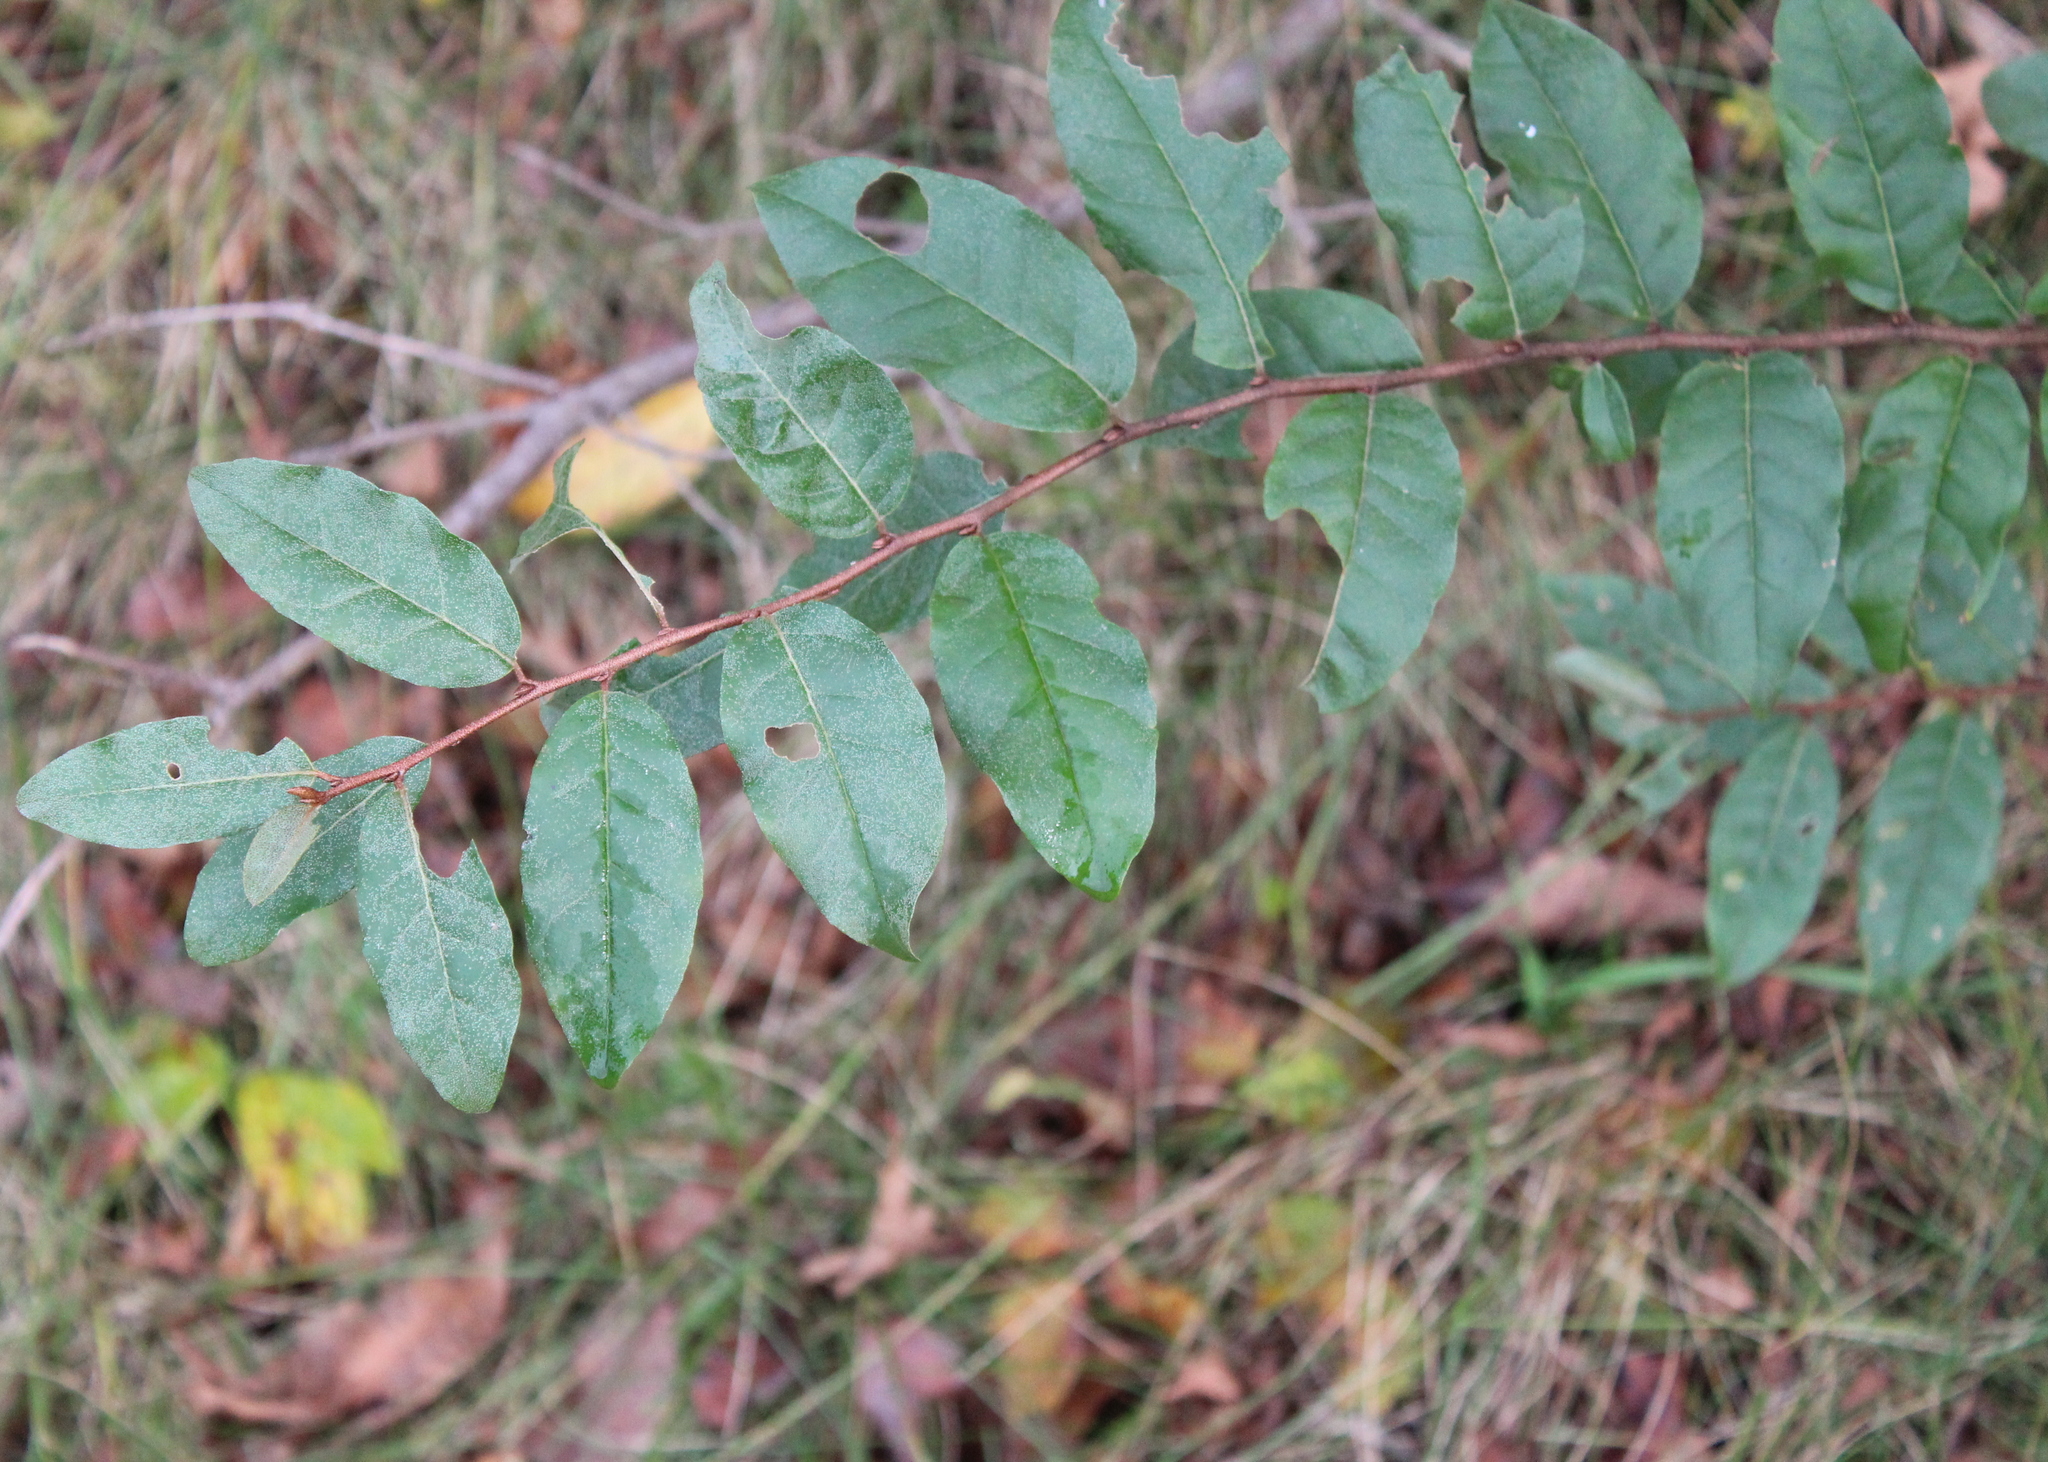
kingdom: Plantae
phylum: Tracheophyta
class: Magnoliopsida
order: Rosales
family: Elaeagnaceae
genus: Elaeagnus
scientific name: Elaeagnus umbellata
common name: Autumn olive
